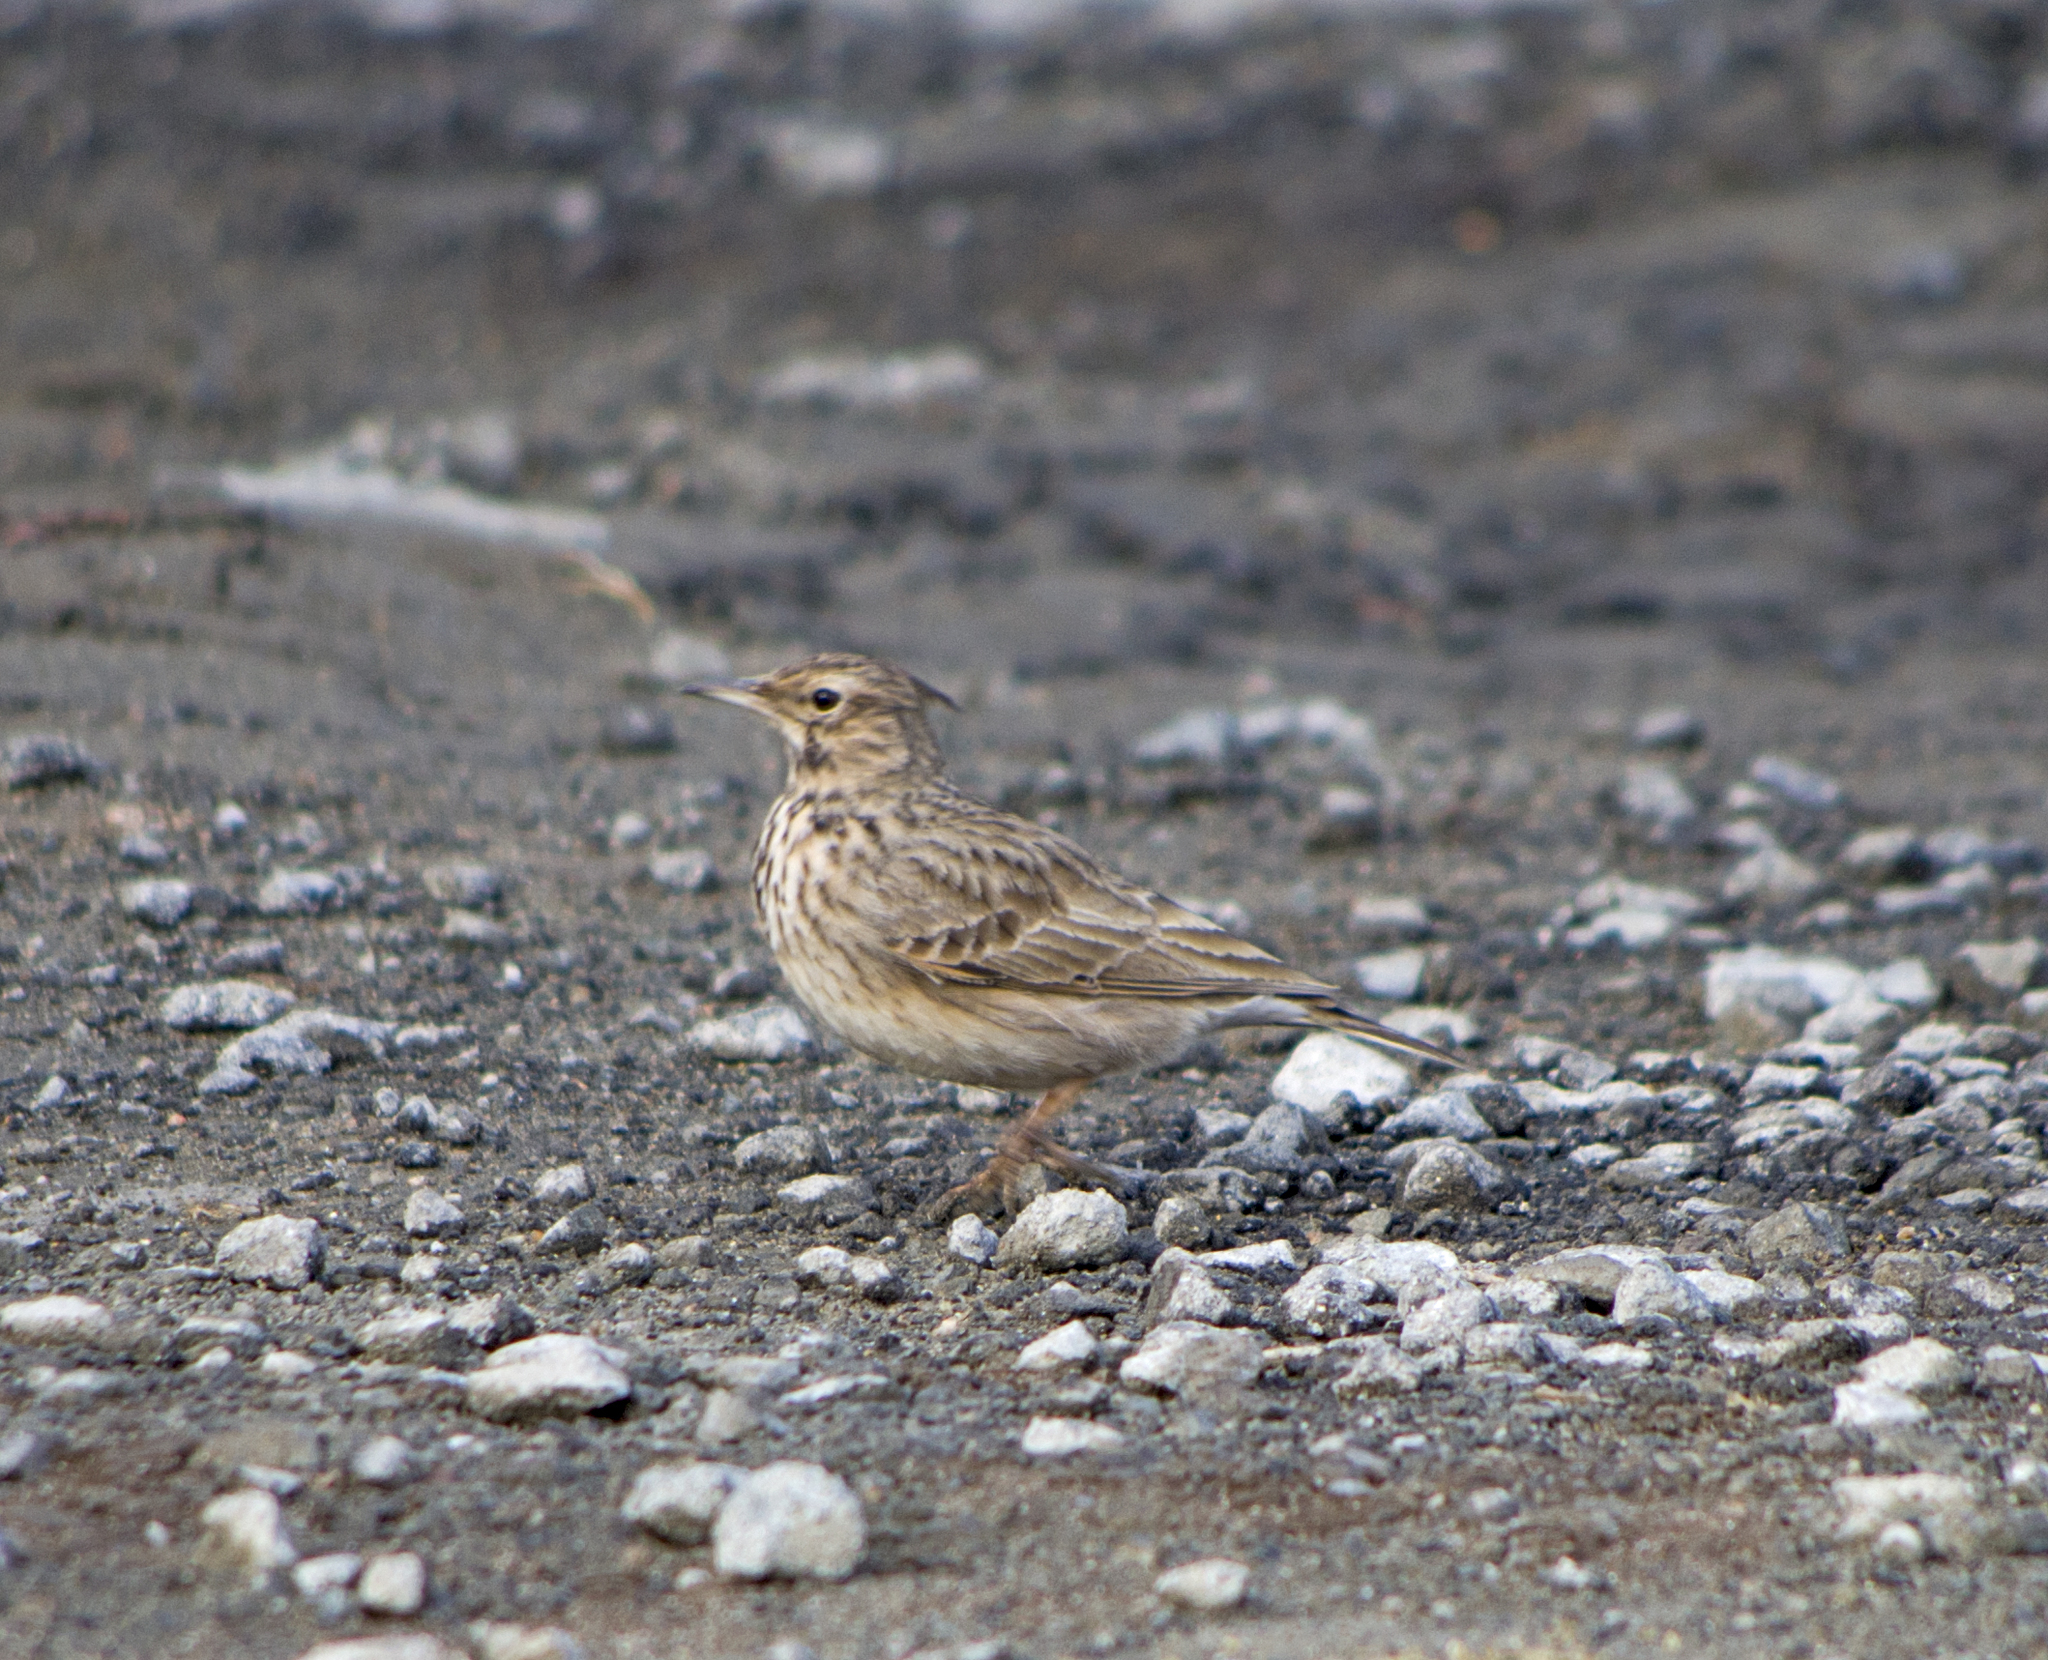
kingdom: Animalia
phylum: Chordata
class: Aves
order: Passeriformes
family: Alaudidae
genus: Galerida
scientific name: Galerida cristata
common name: Crested lark
